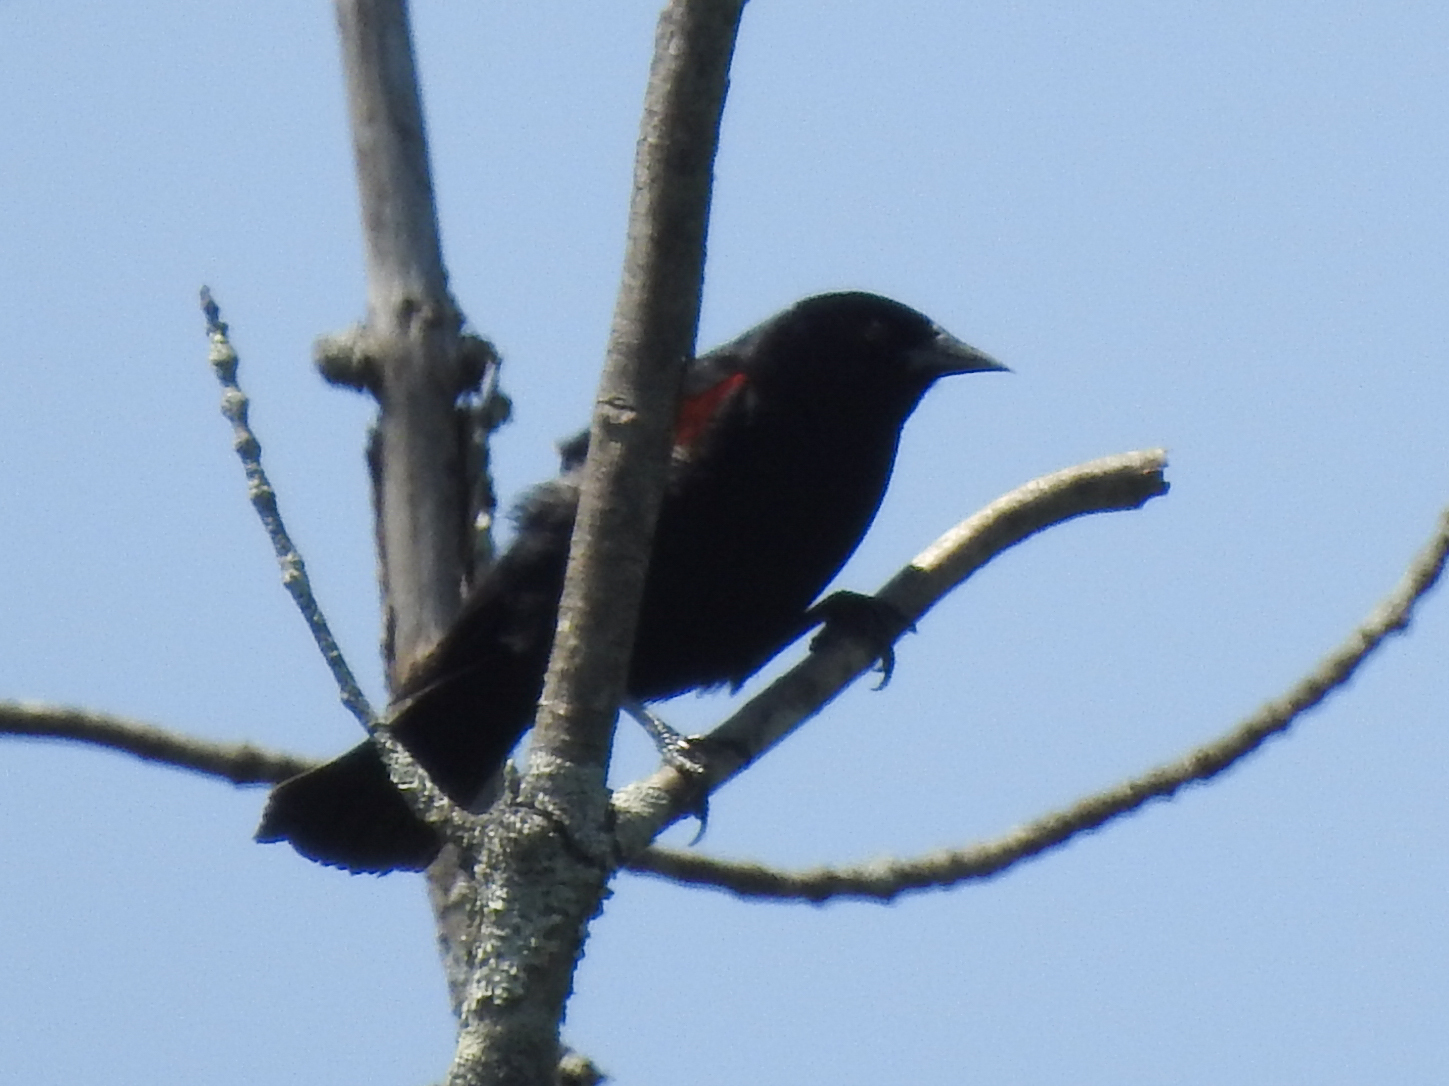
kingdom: Animalia
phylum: Chordata
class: Aves
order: Passeriformes
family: Icteridae
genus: Agelaius
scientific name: Agelaius phoeniceus
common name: Red-winged blackbird
